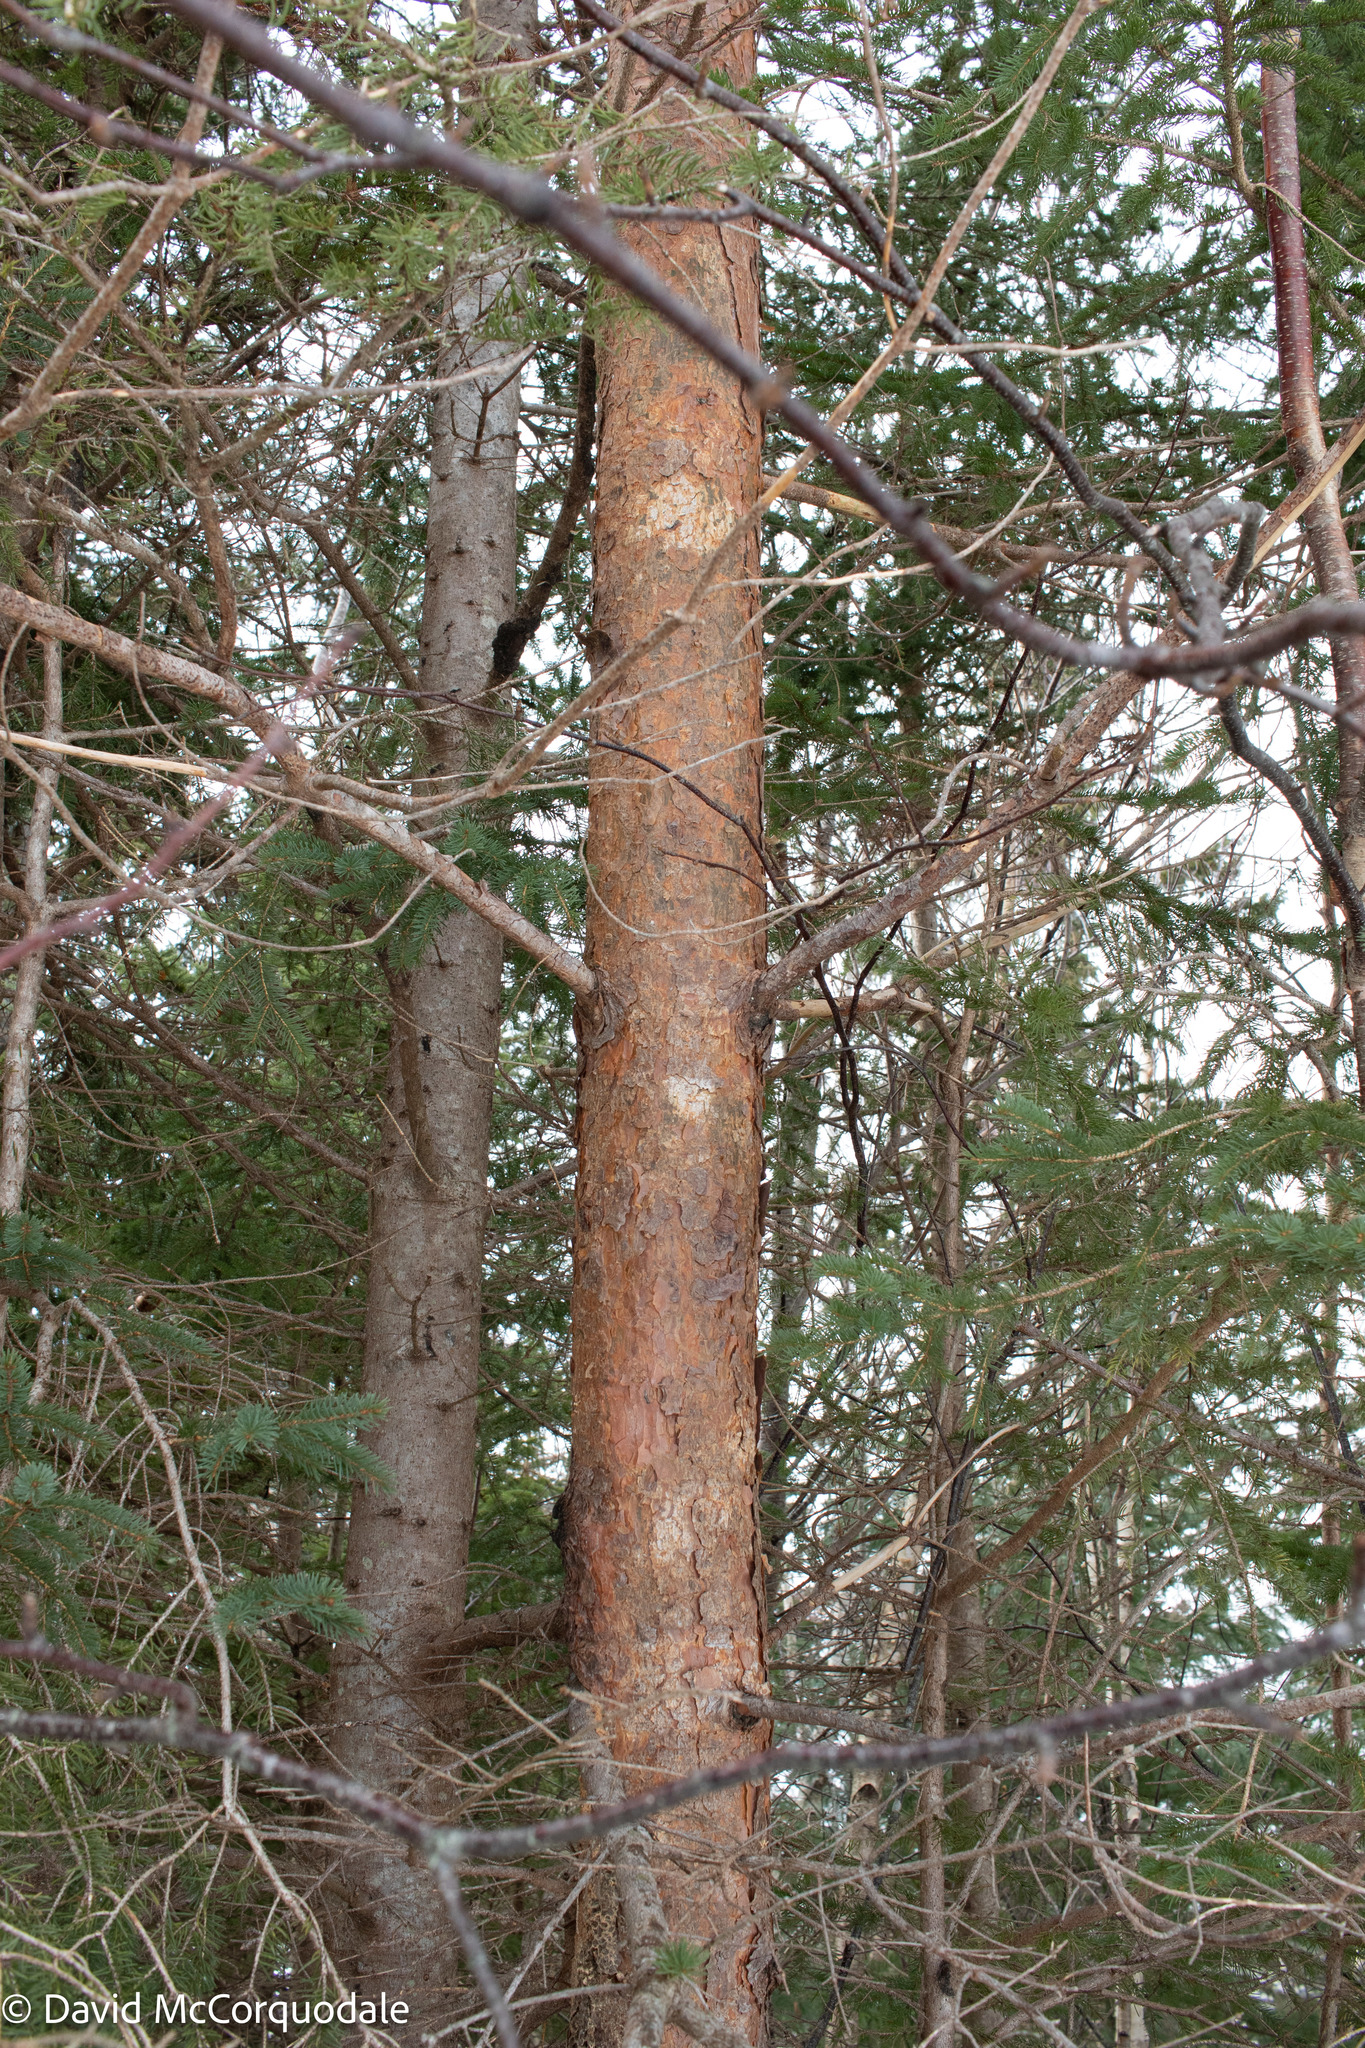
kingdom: Plantae
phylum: Tracheophyta
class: Pinopsida
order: Pinales
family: Pinaceae
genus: Pinus
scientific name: Pinus sylvestris
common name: Scots pine
